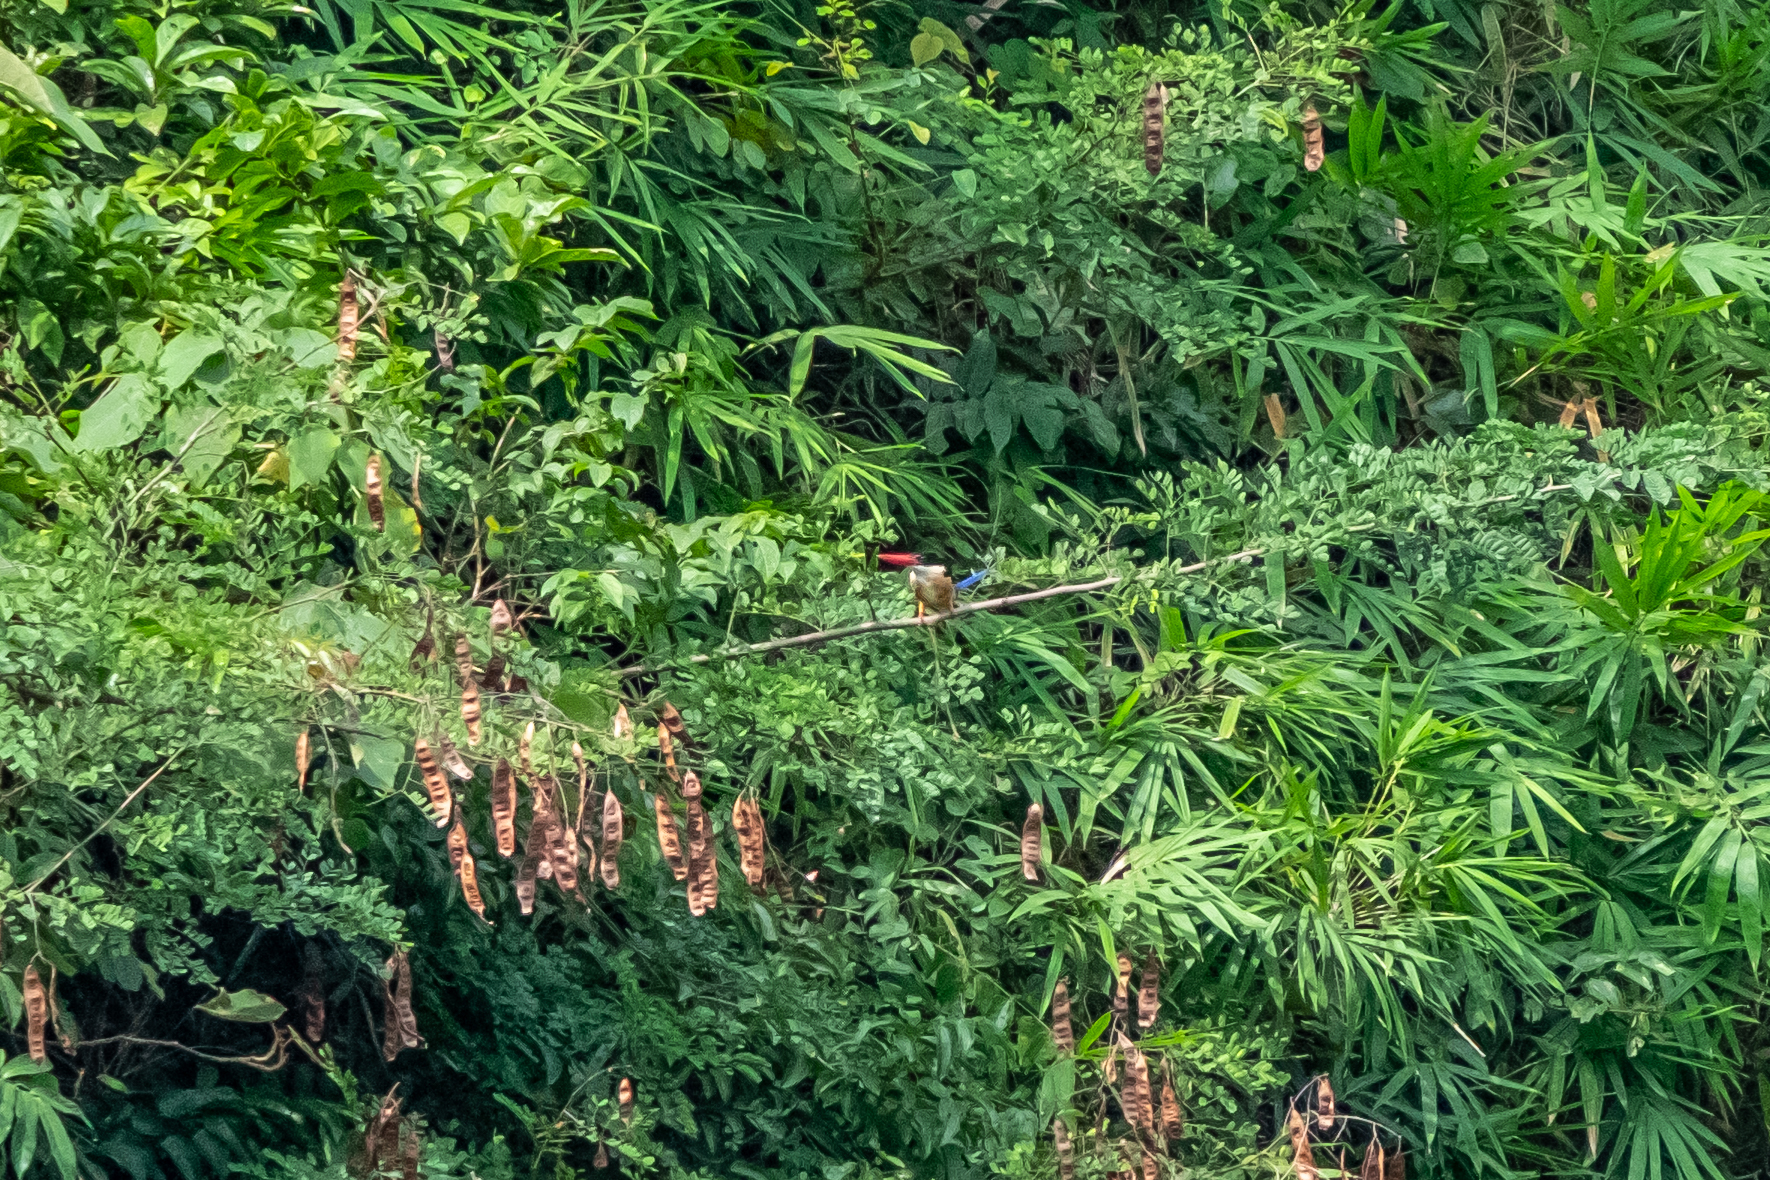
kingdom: Animalia
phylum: Chordata
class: Aves
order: Coraciiformes
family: Alcedinidae
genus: Halcyon
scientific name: Halcyon pileata
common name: Black-capped kingfisher
